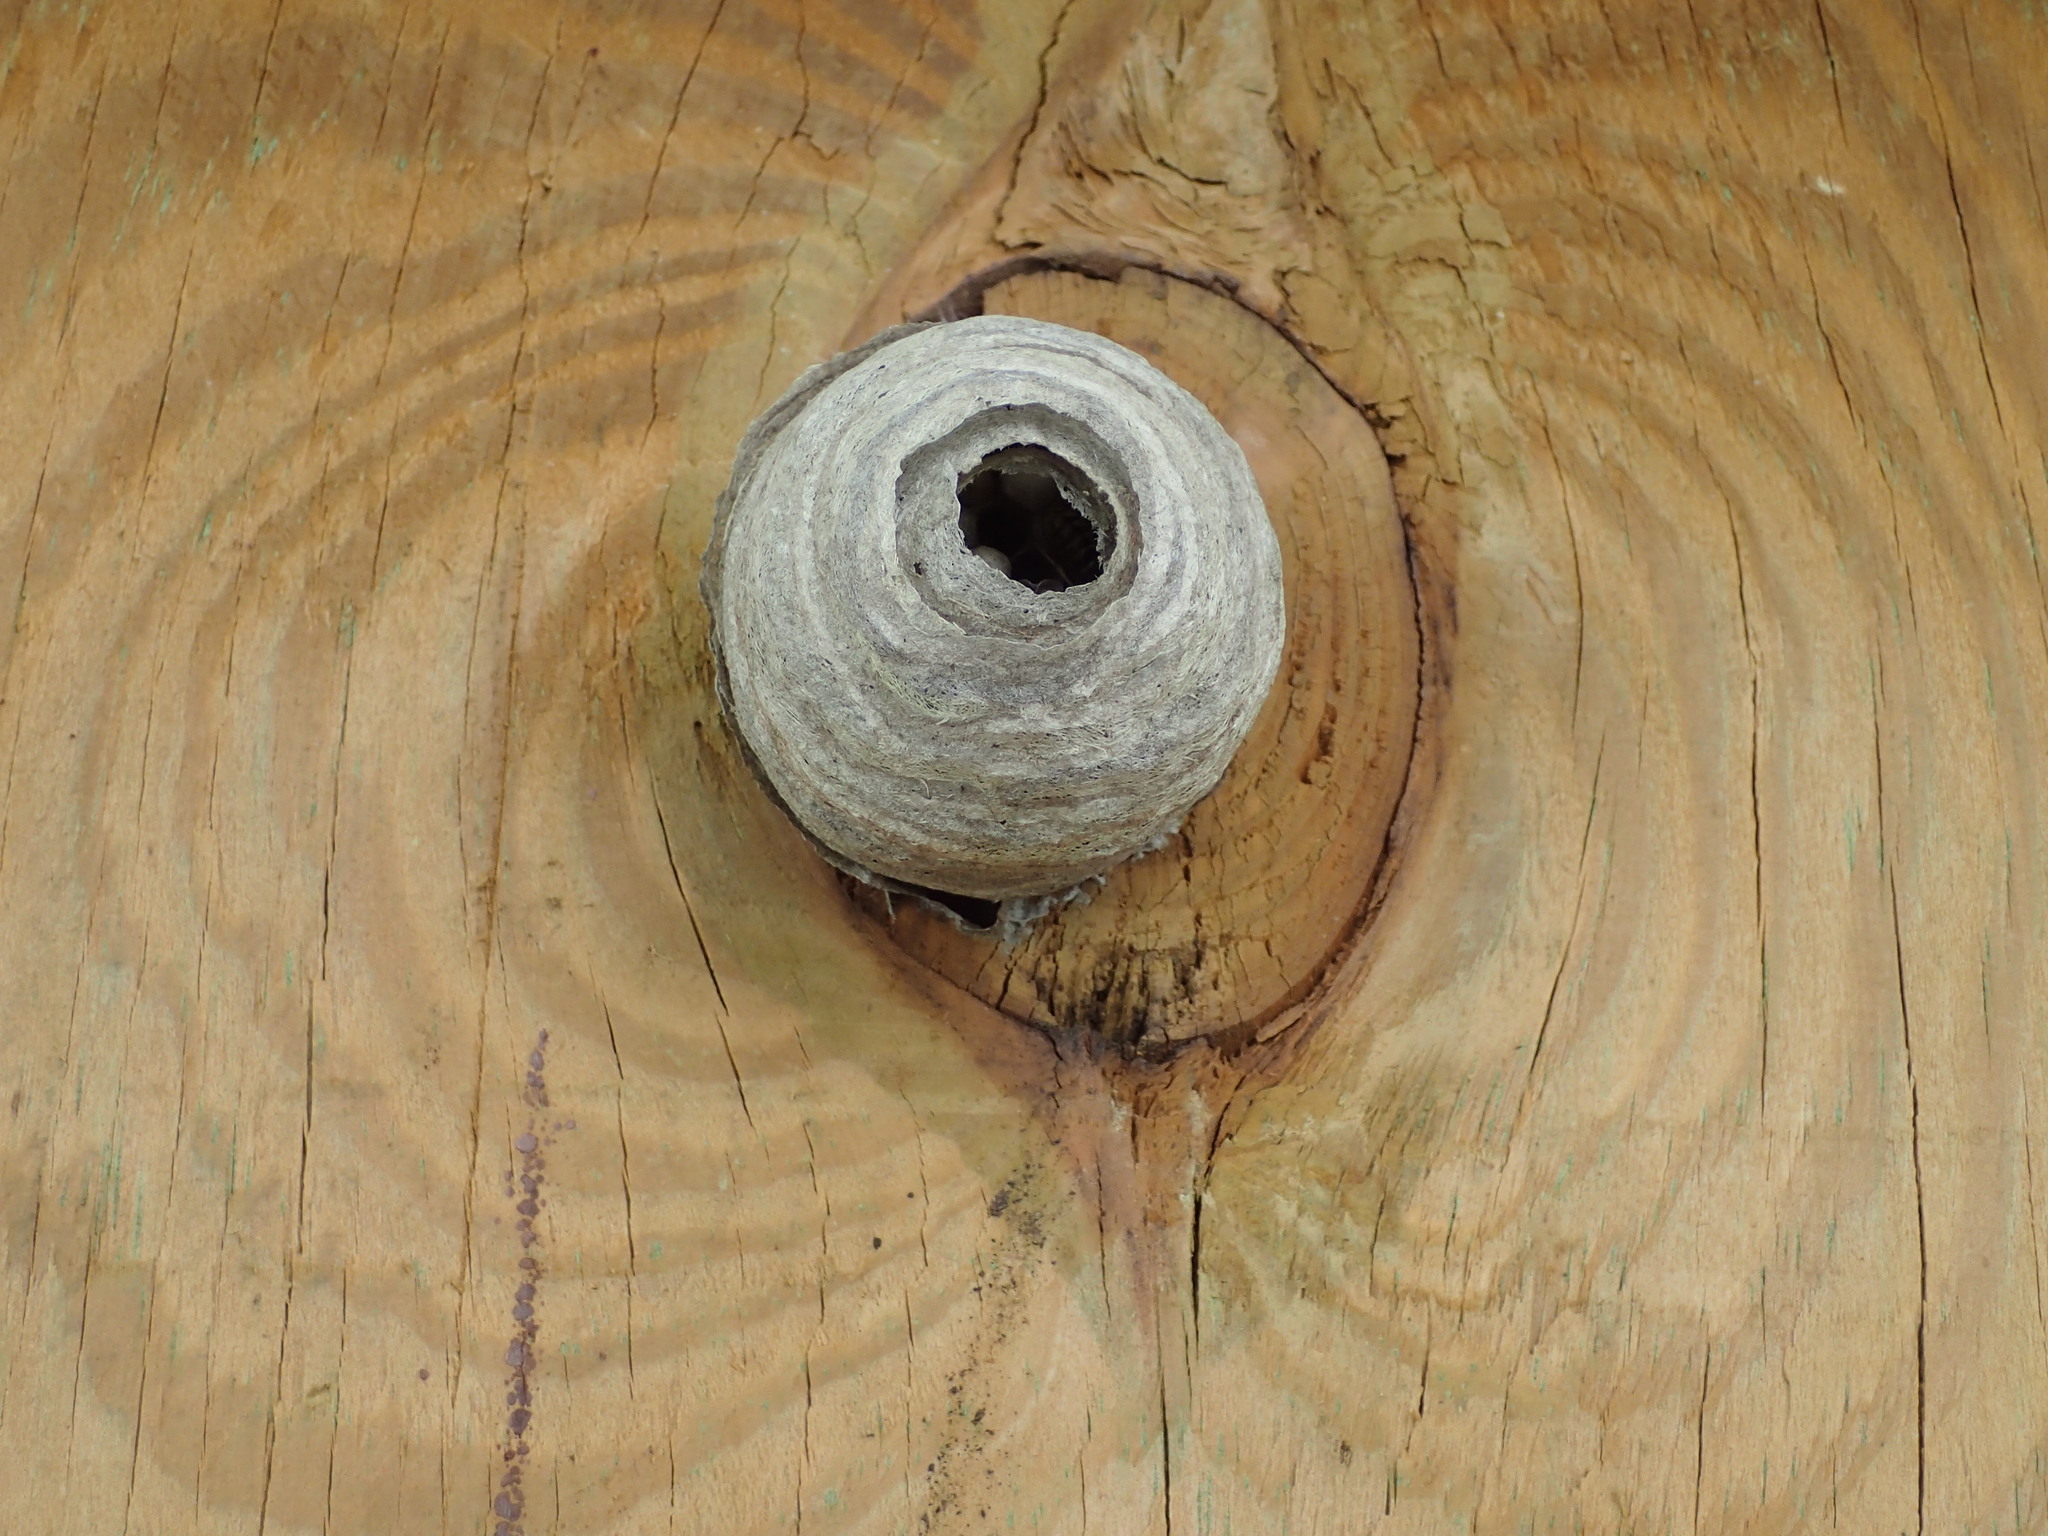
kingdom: Animalia
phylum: Arthropoda
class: Insecta
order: Hymenoptera
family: Vespidae
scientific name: Vespidae
